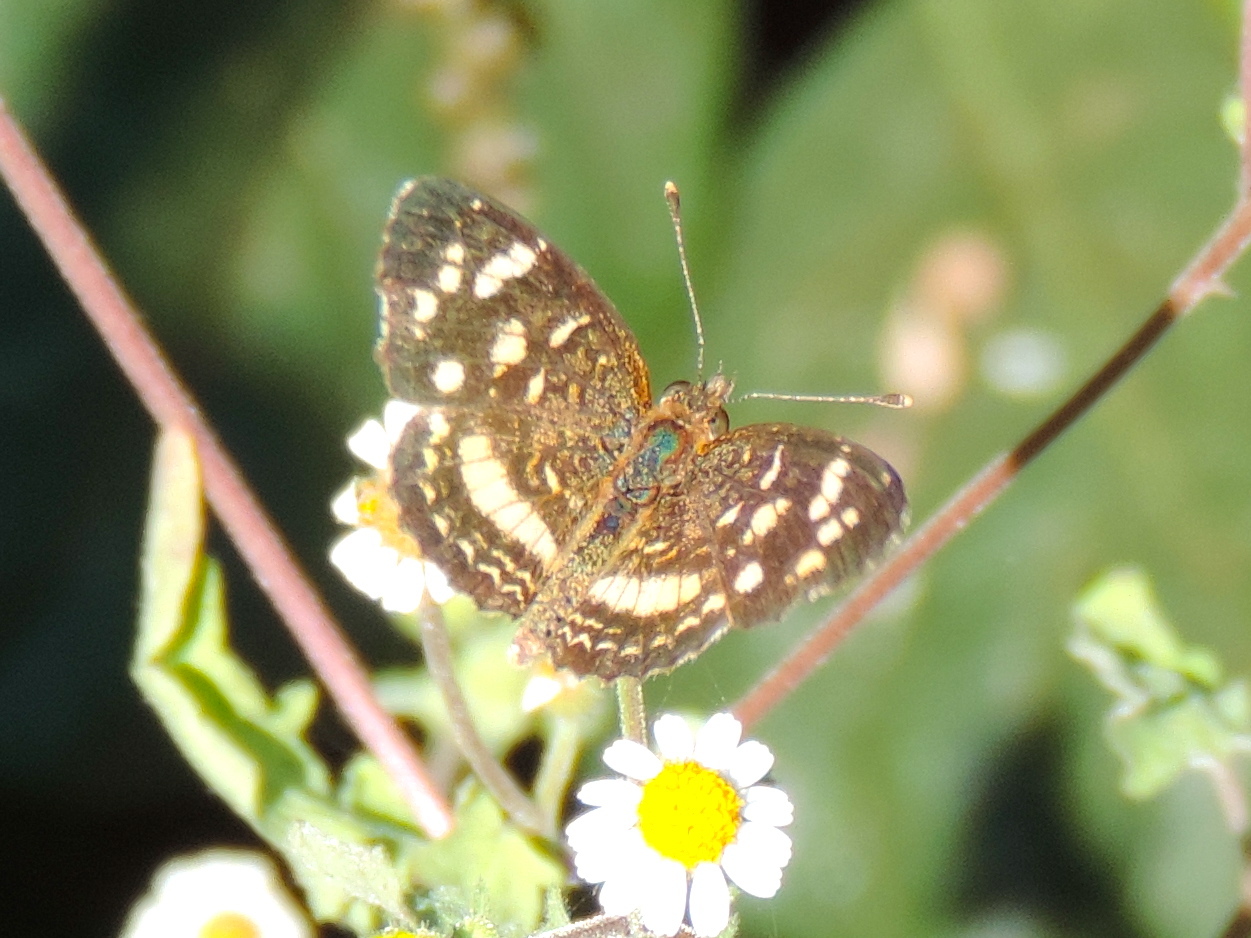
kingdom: Animalia
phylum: Arthropoda
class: Insecta
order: Lepidoptera
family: Nymphalidae
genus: Anthanassa
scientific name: Anthanassa tulcis
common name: Pale-banded crescent
